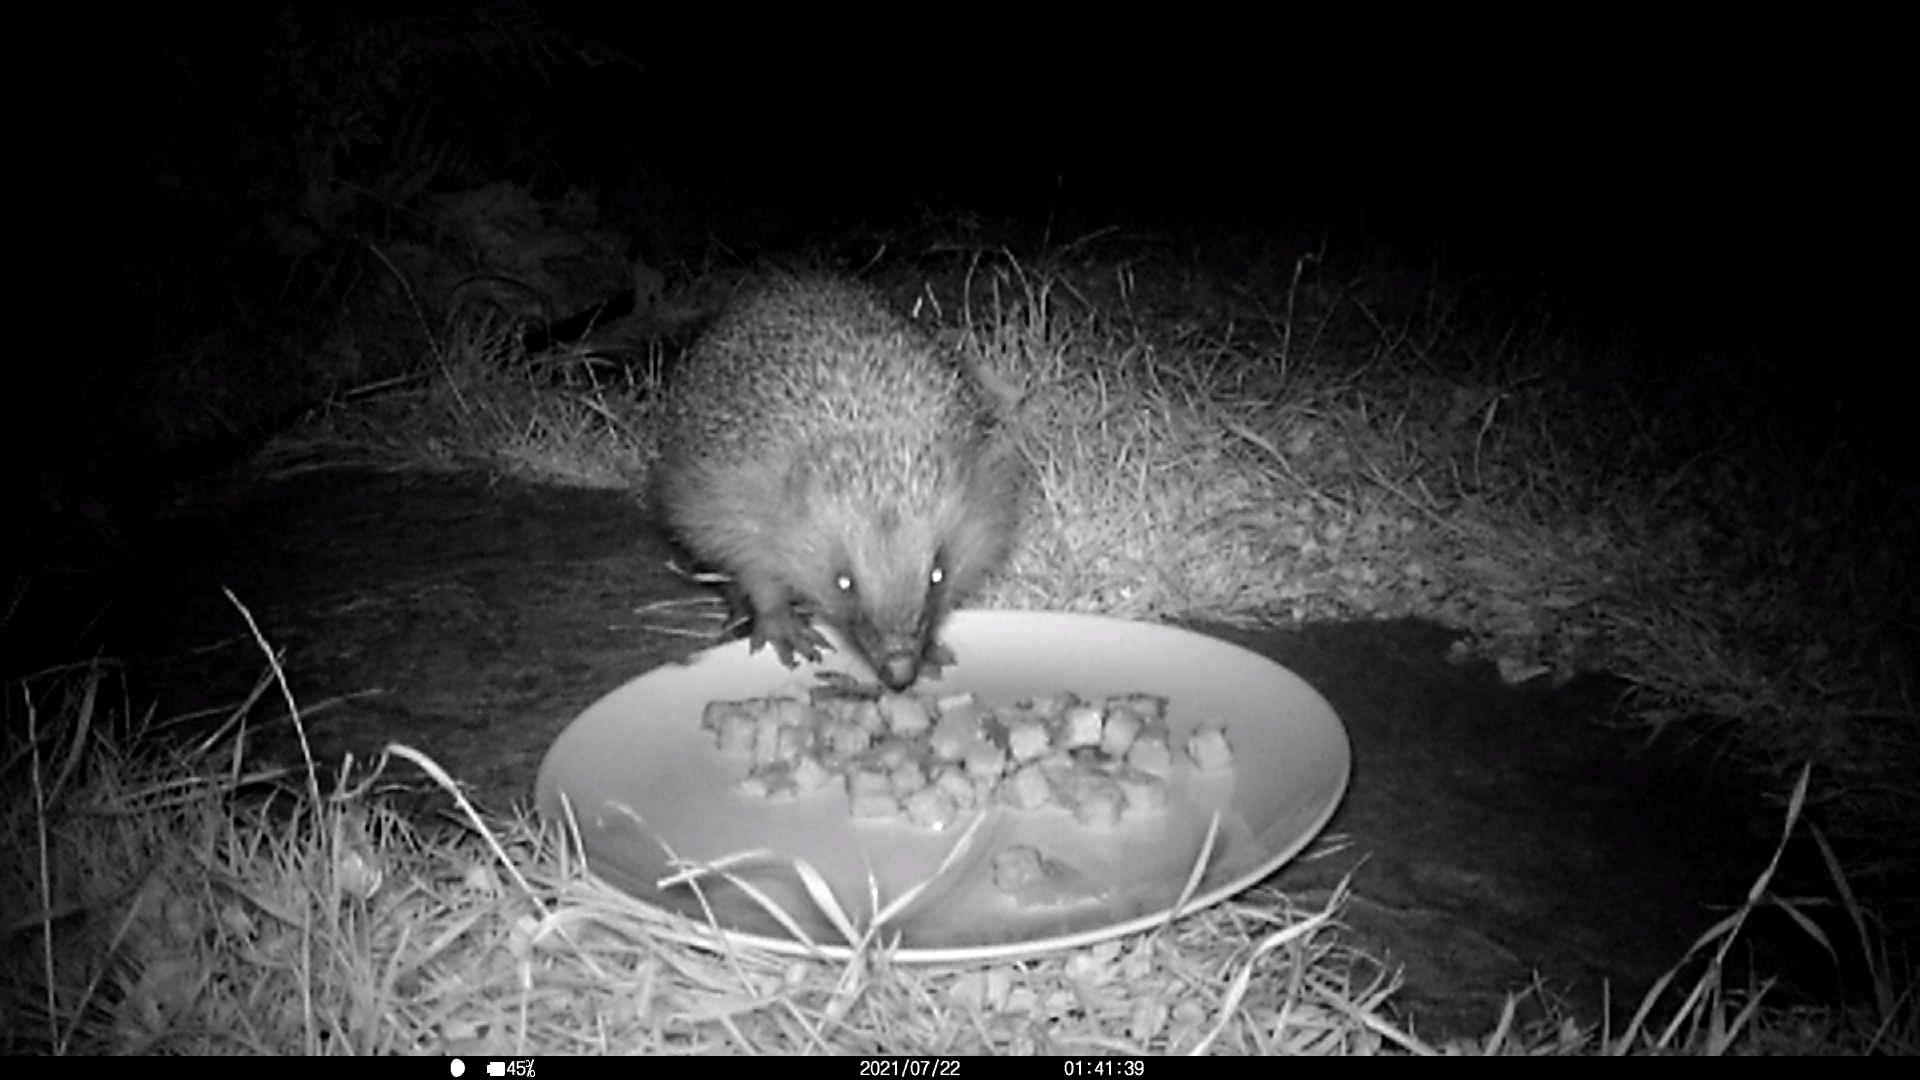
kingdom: Animalia
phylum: Chordata
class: Mammalia
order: Erinaceomorpha
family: Erinaceidae
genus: Erinaceus
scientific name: Erinaceus europaeus
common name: West european hedgehog
